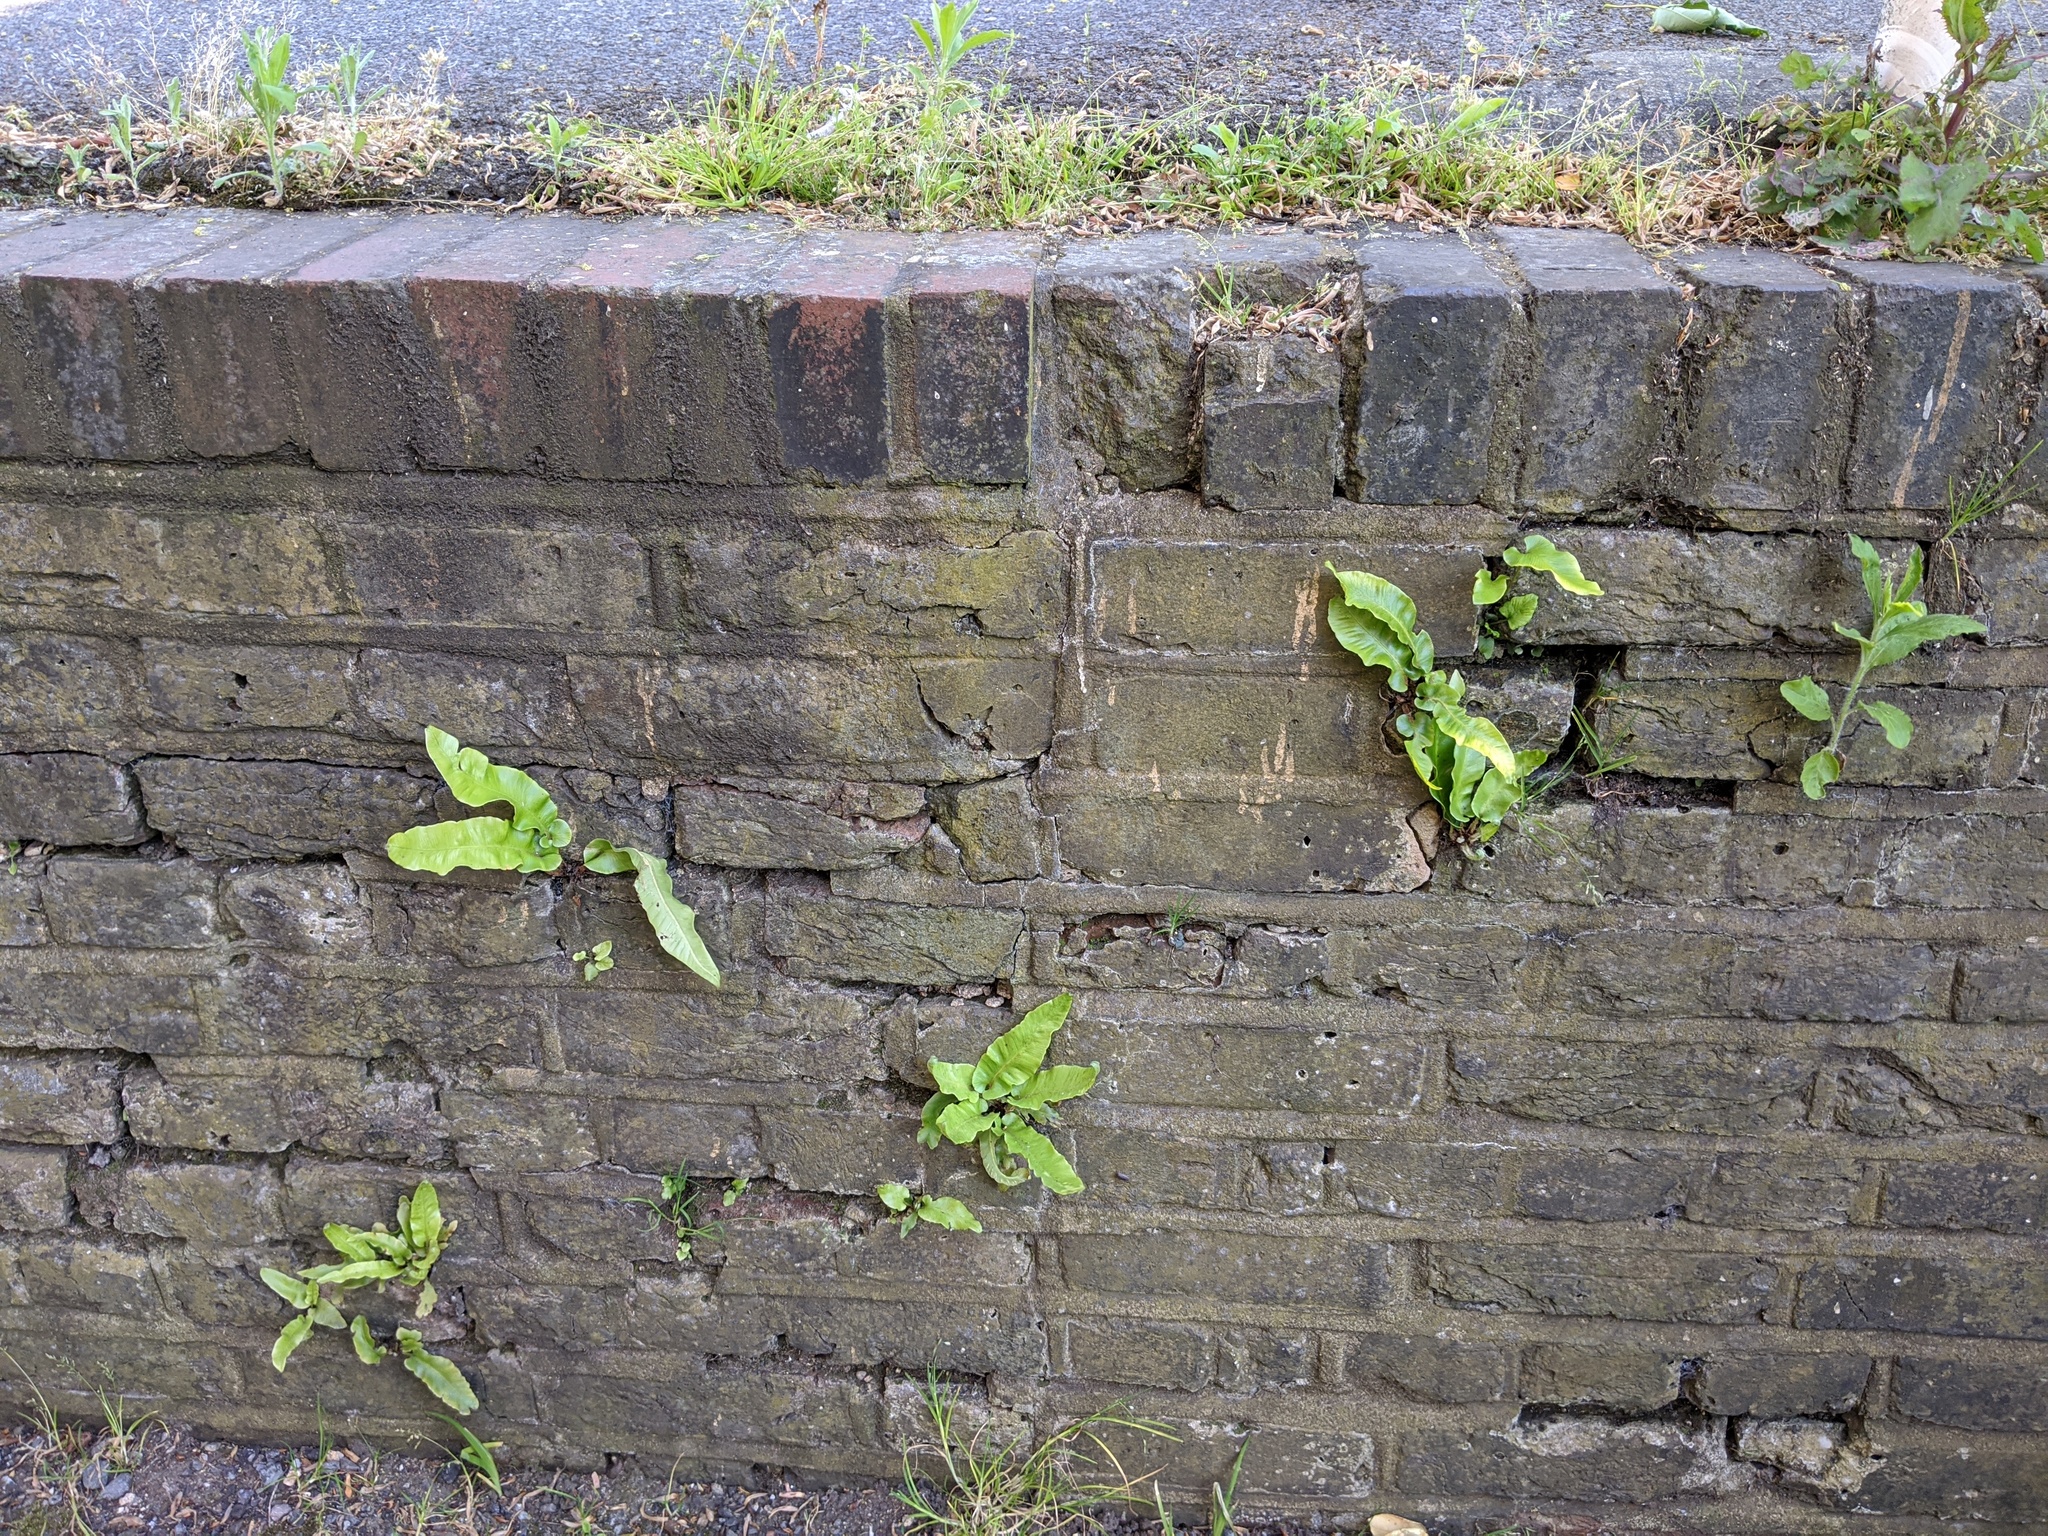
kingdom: Plantae
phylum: Tracheophyta
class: Polypodiopsida
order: Polypodiales
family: Aspleniaceae
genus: Asplenium
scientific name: Asplenium scolopendrium
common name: Hart's-tongue fern
